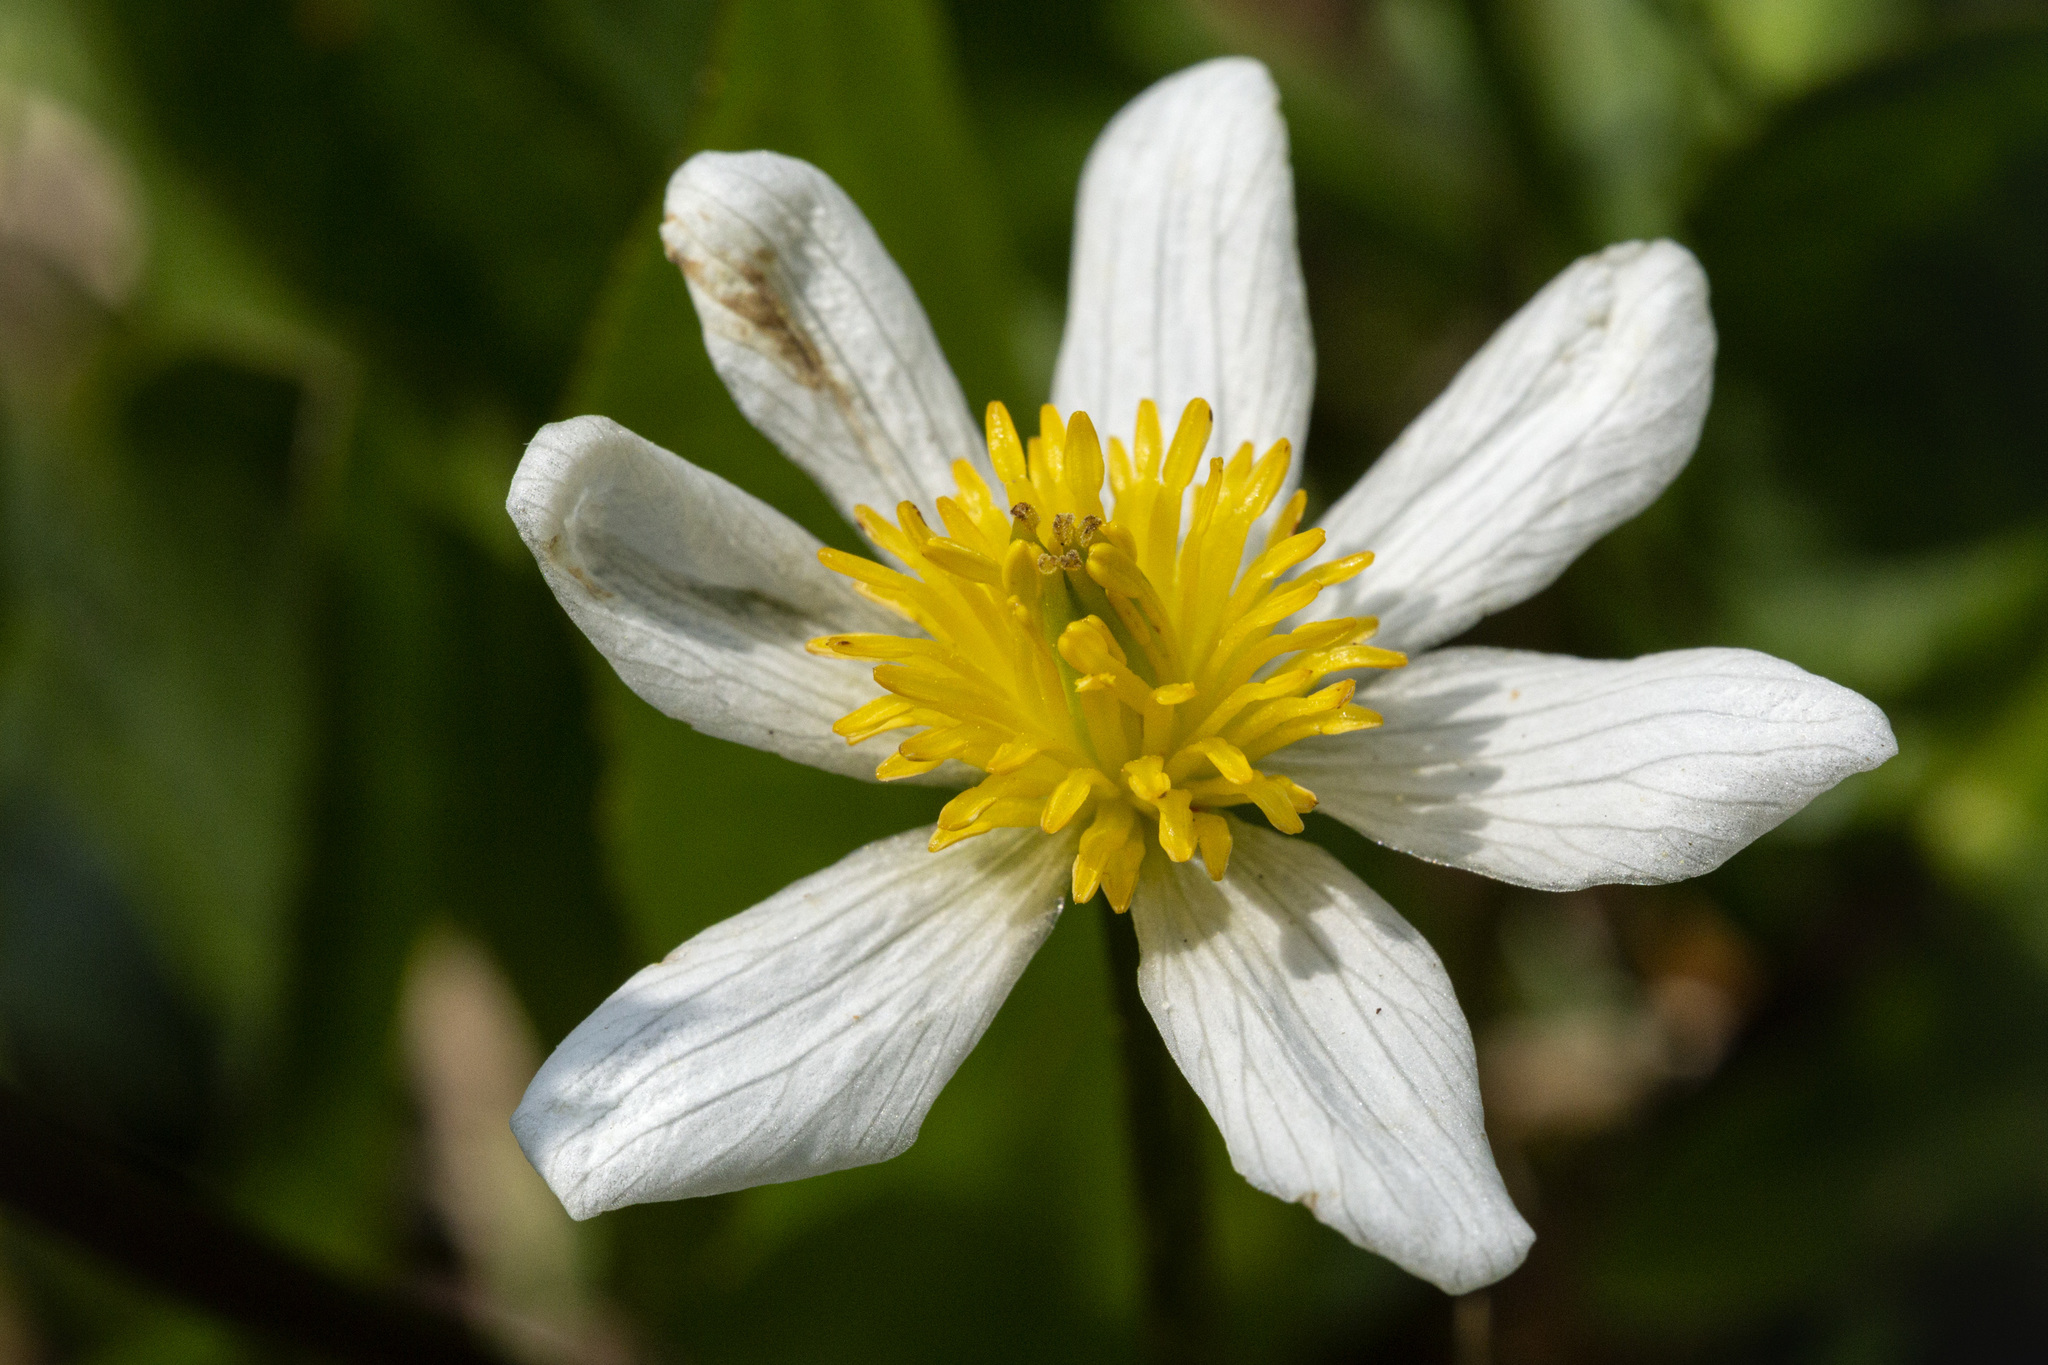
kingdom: Plantae
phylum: Tracheophyta
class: Magnoliopsida
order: Ranunculales
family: Ranunculaceae
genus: Caltha
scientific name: Caltha leptosepala
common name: Elkslip
